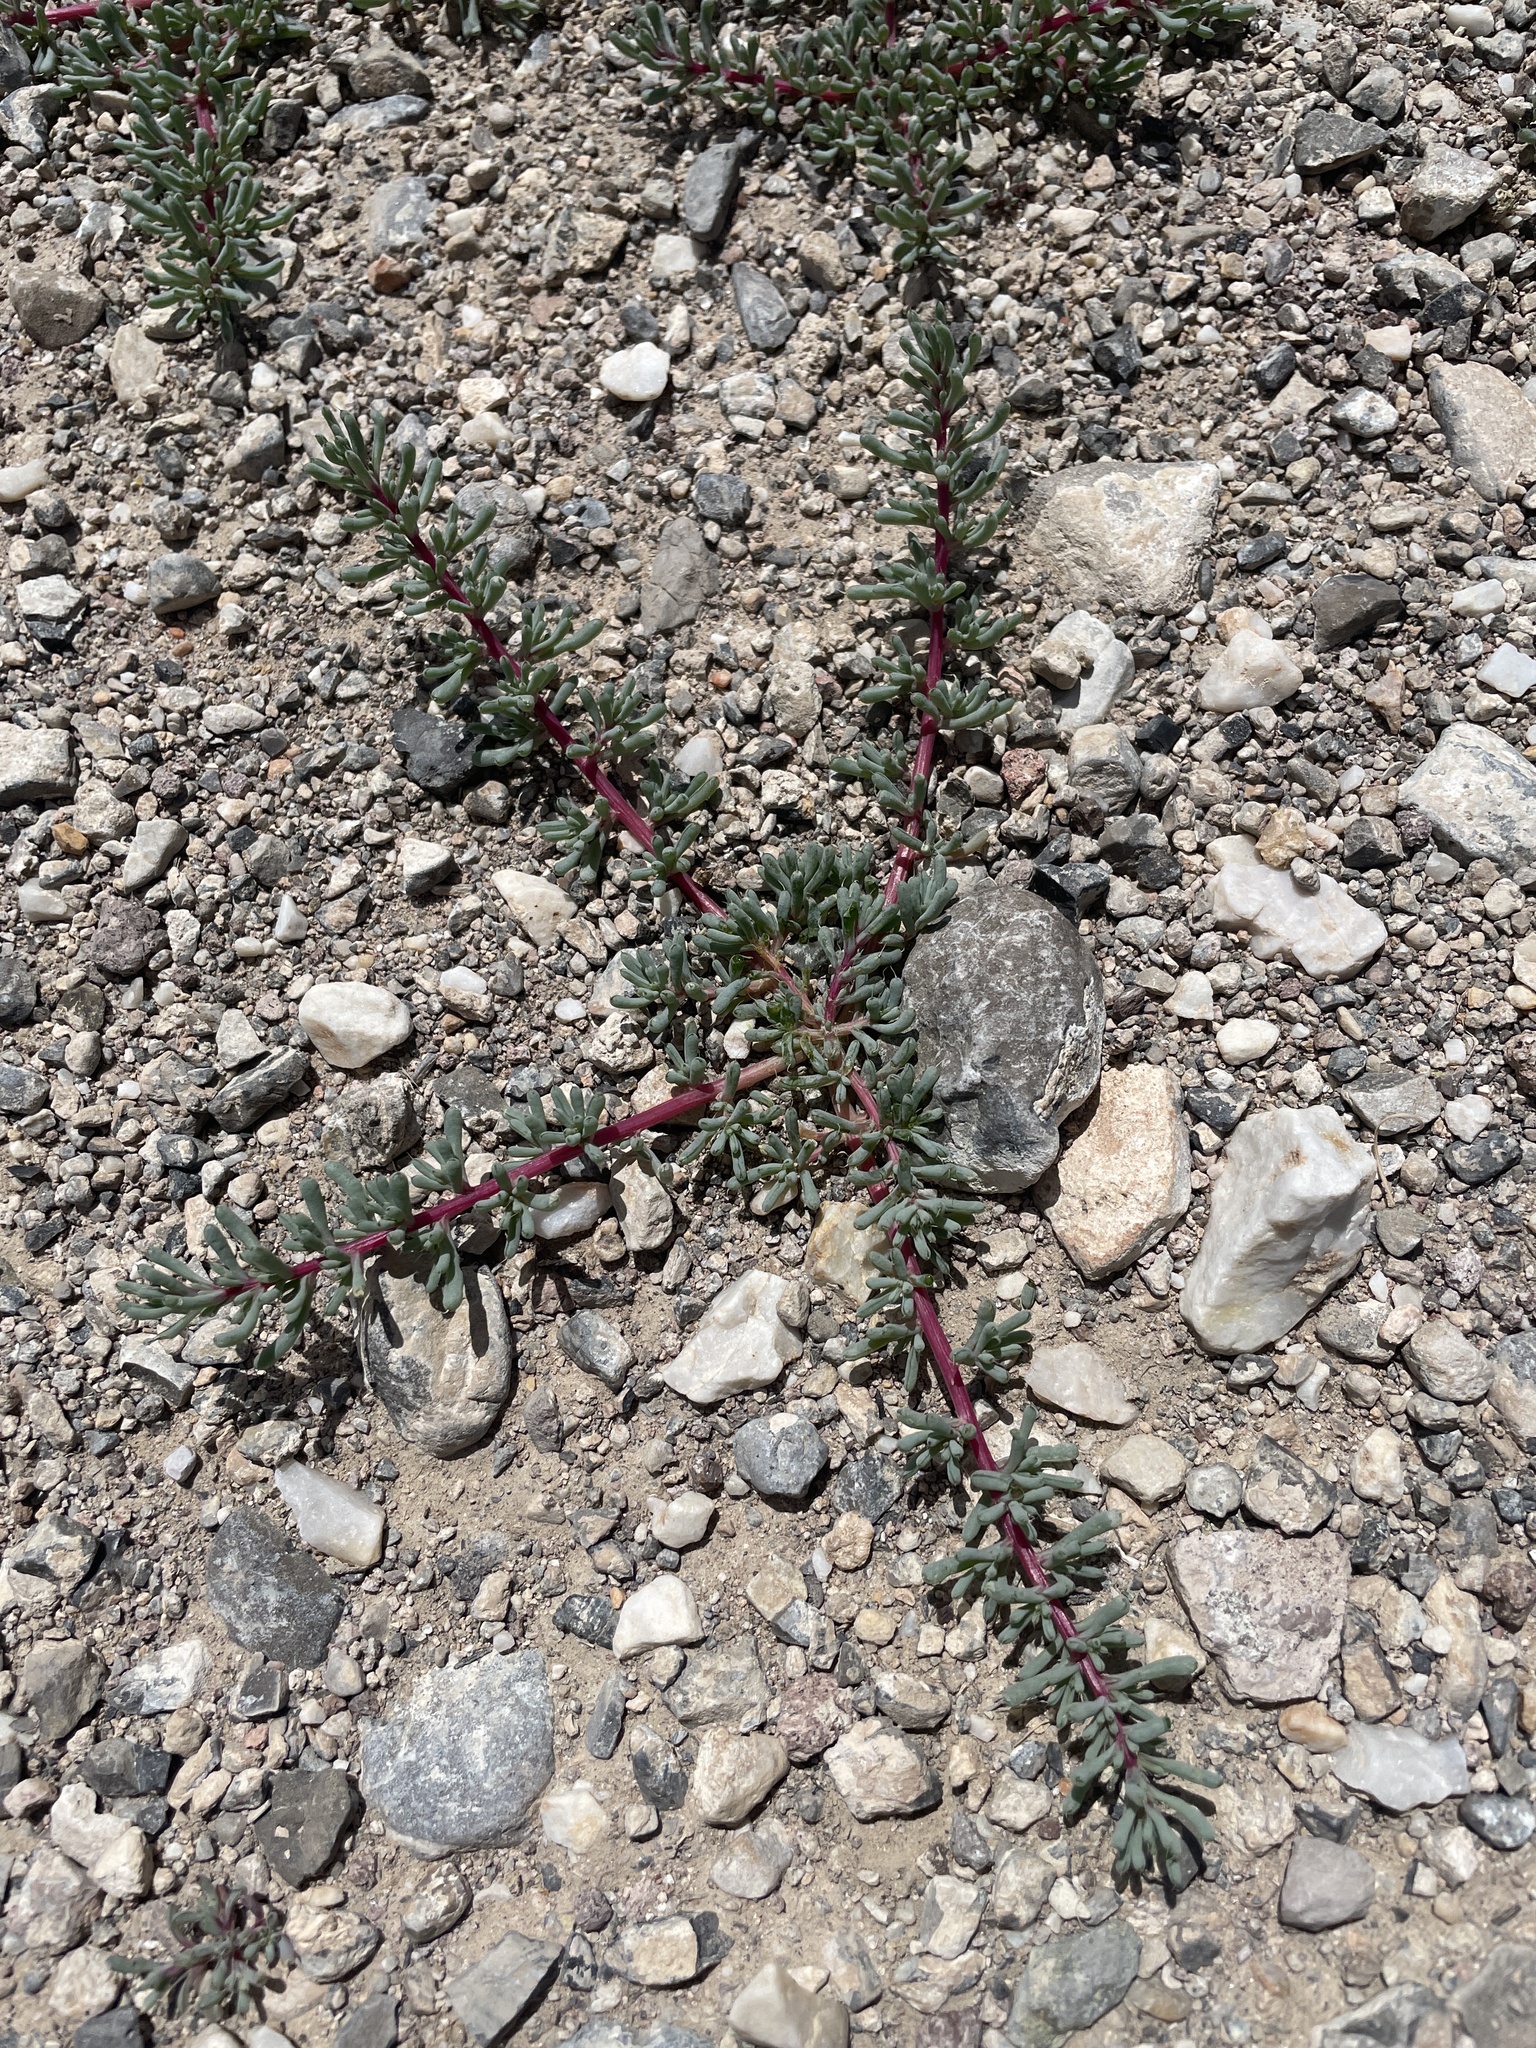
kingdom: Plantae
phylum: Tracheophyta
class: Magnoliopsida
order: Caryophyllales
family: Amaranthaceae
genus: Halogeton
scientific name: Halogeton glomeratus
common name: Saltlover
